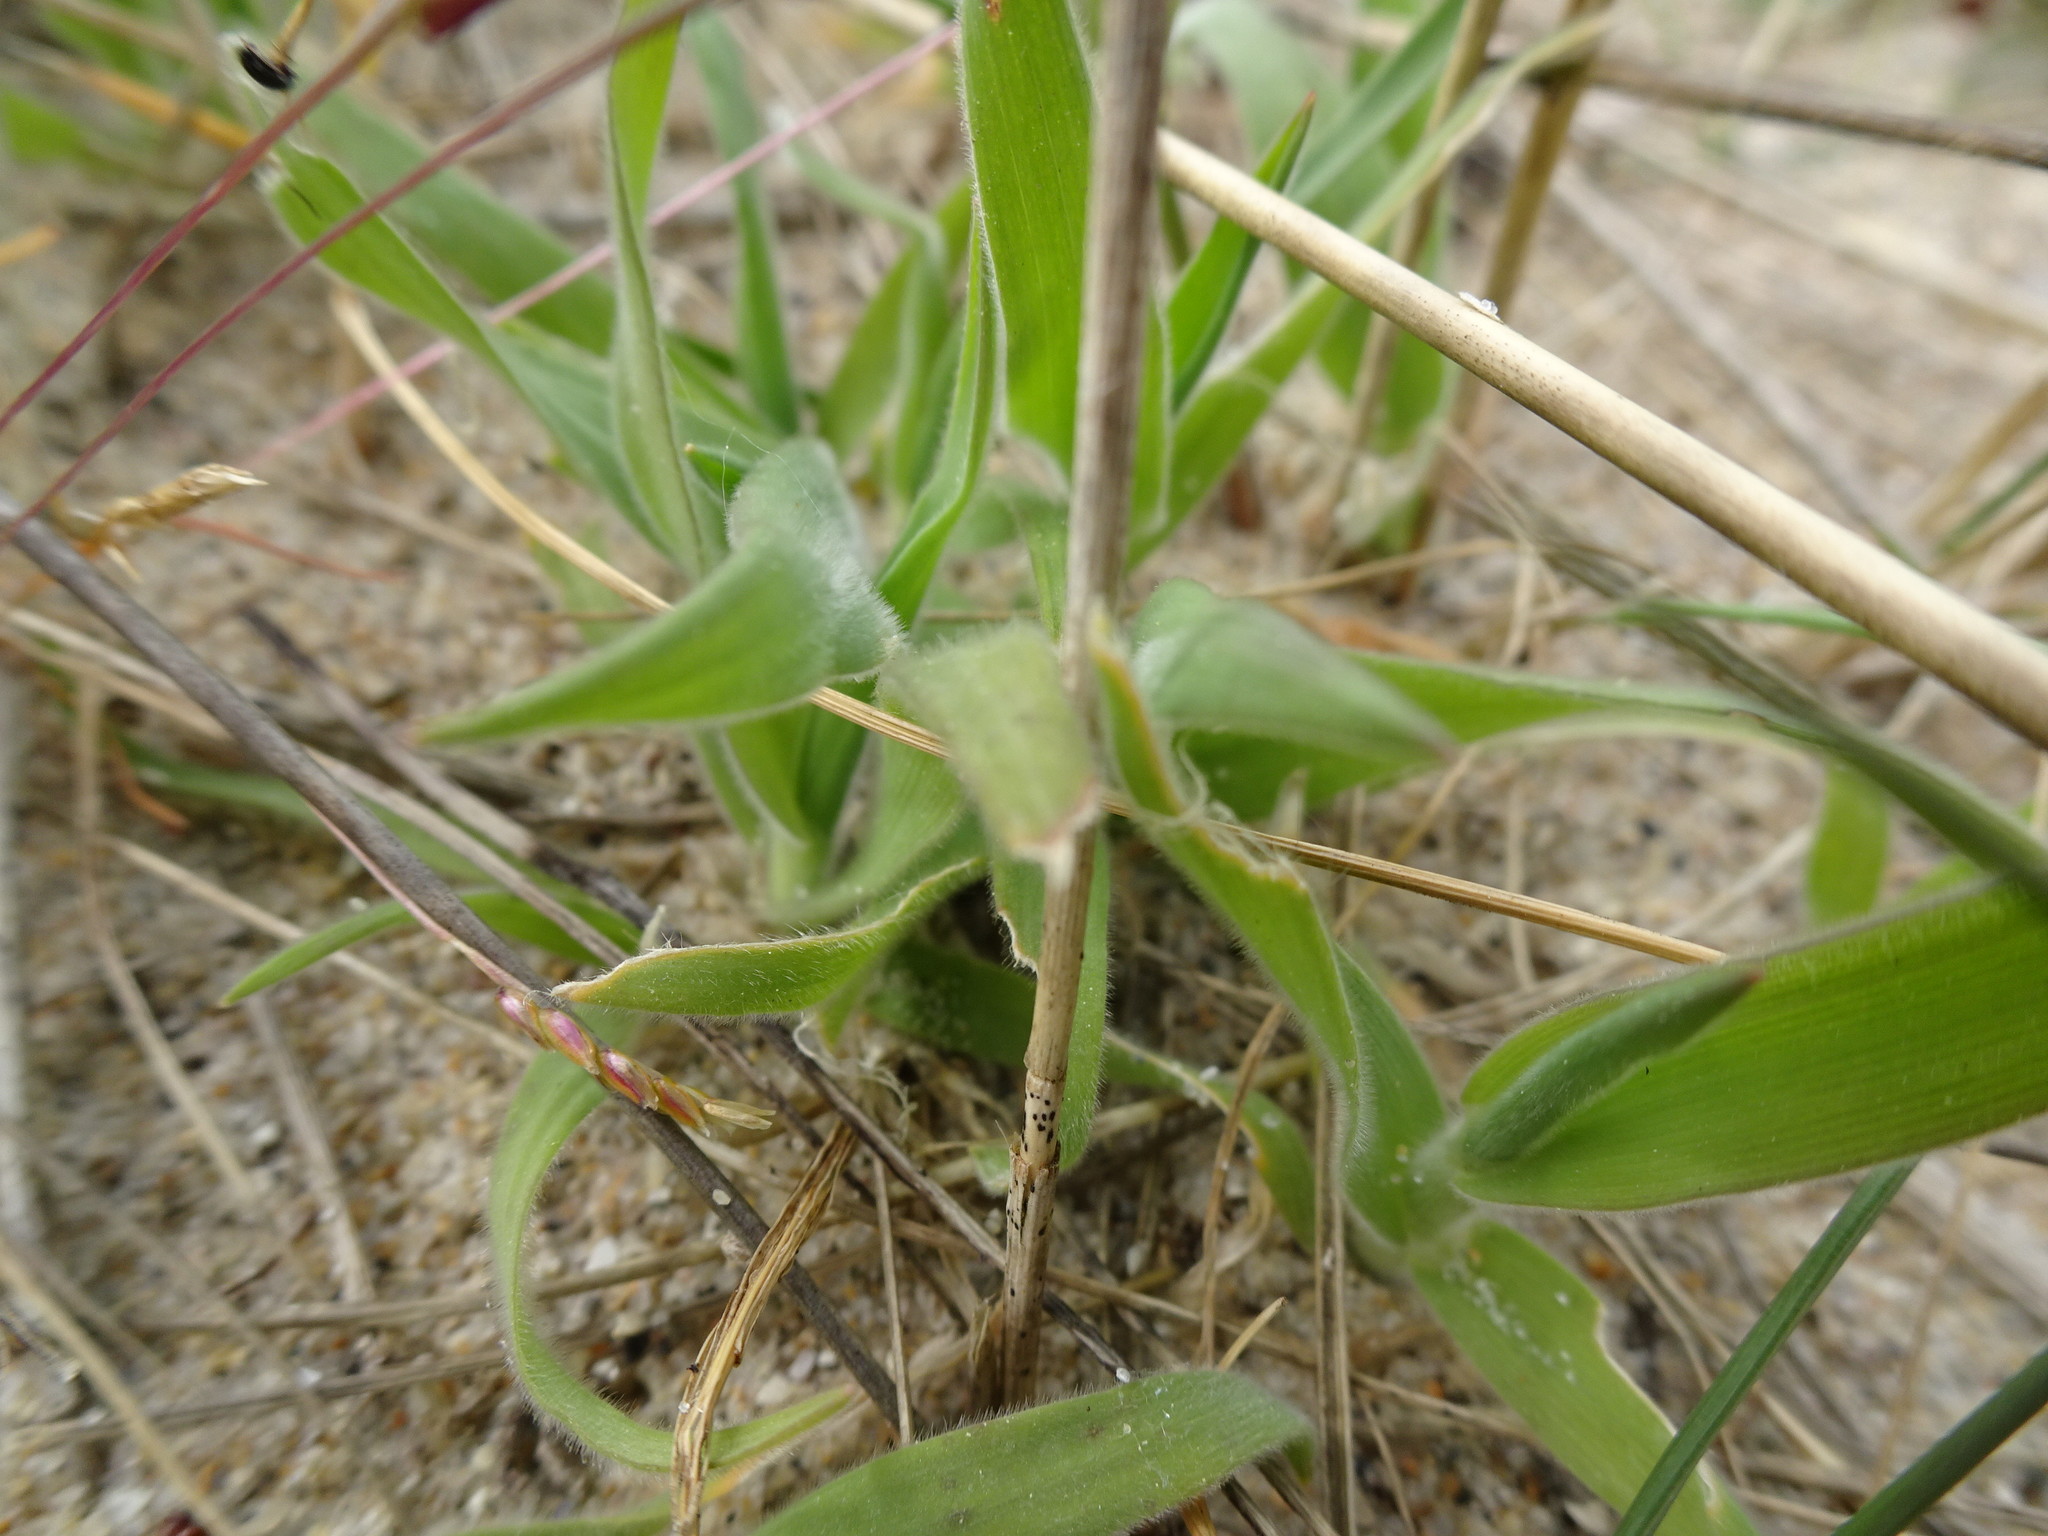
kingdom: Plantae
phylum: Tracheophyta
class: Liliopsida
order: Poales
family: Poaceae
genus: Lagurus
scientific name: Lagurus ovatus
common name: Hare's-tail
